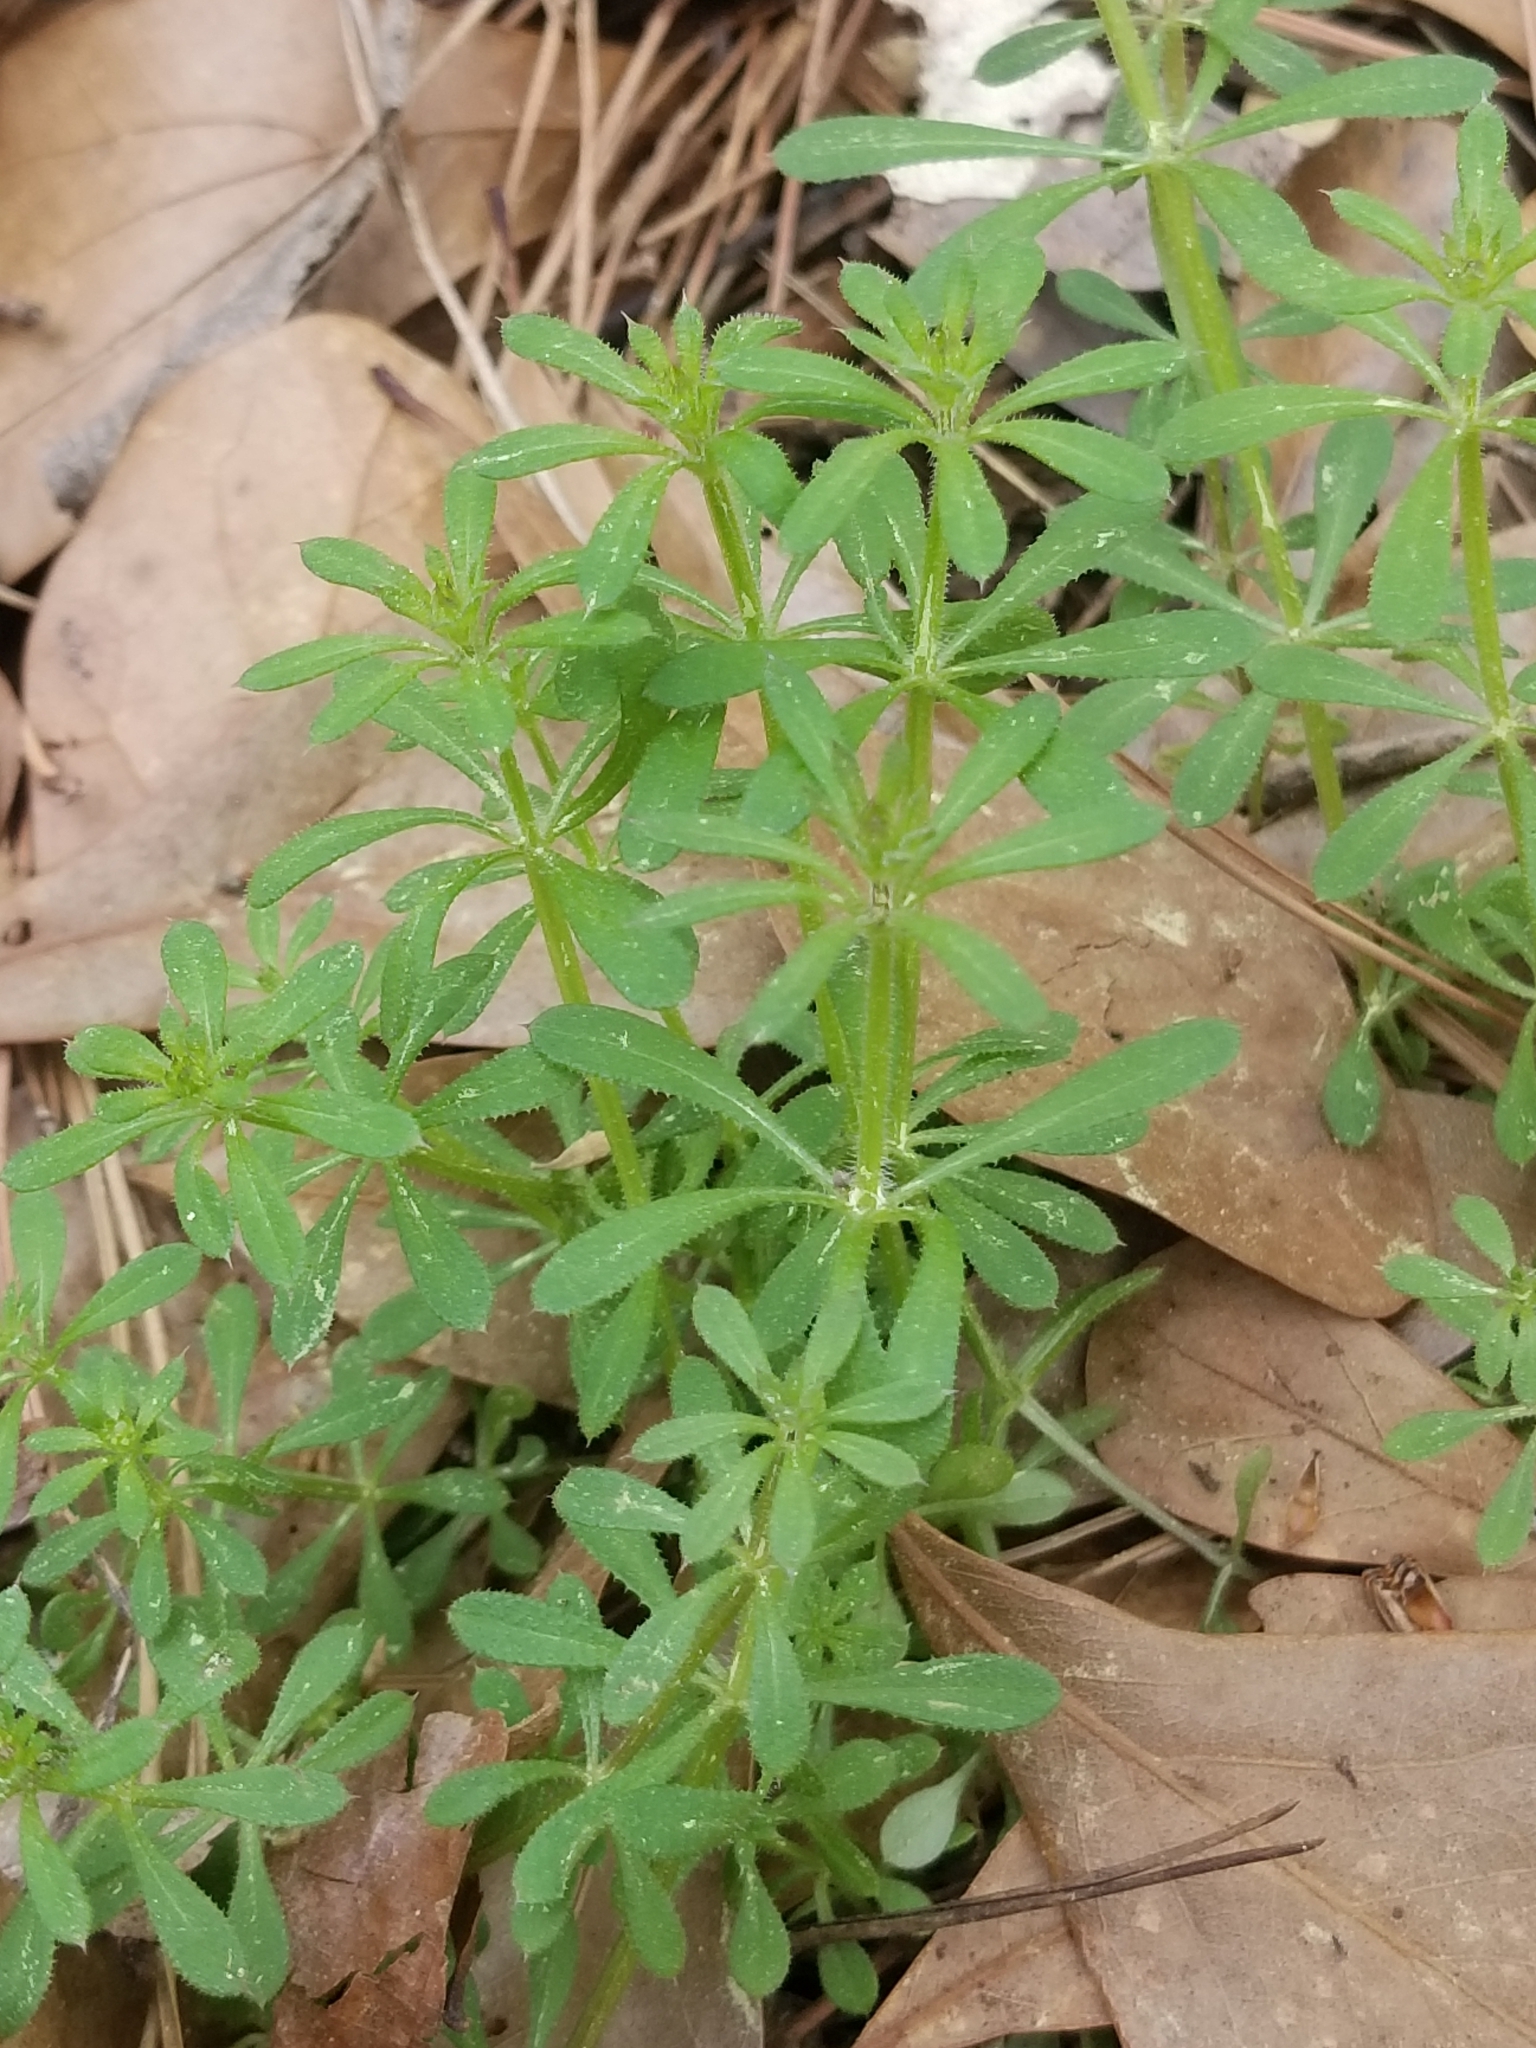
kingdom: Plantae
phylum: Tracheophyta
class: Magnoliopsida
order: Gentianales
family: Rubiaceae
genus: Galium
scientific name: Galium aparine
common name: Cleavers
